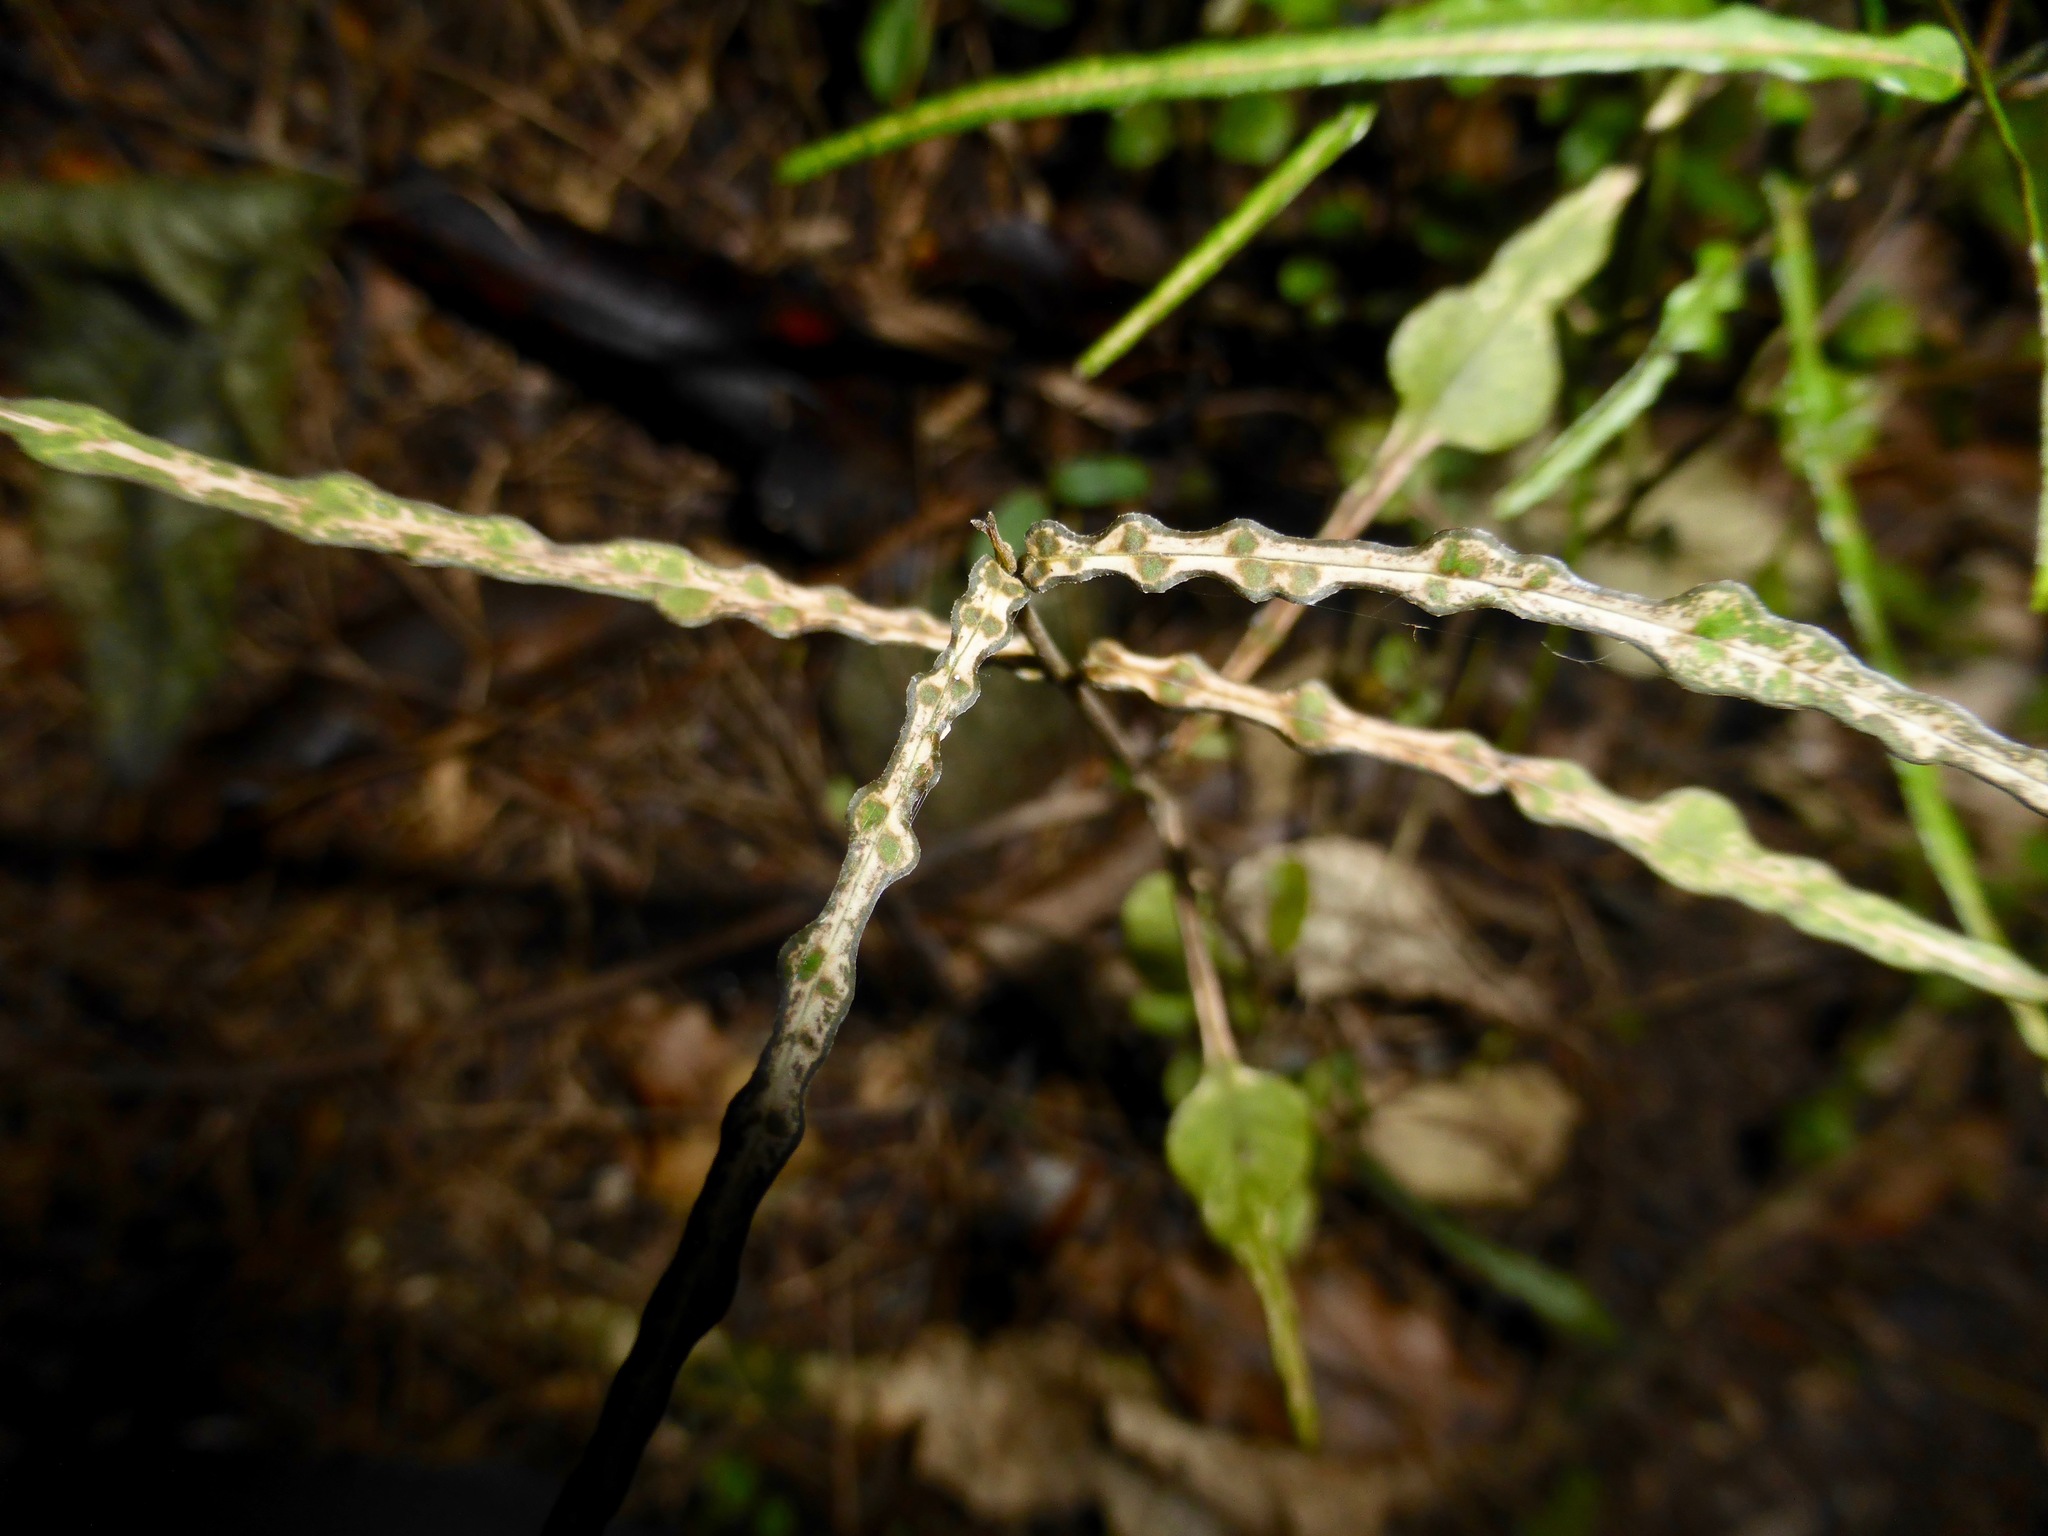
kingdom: Plantae
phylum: Tracheophyta
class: Magnoliopsida
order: Gentianales
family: Apocynaceae
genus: Parsonsia
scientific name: Parsonsia heterophylla
